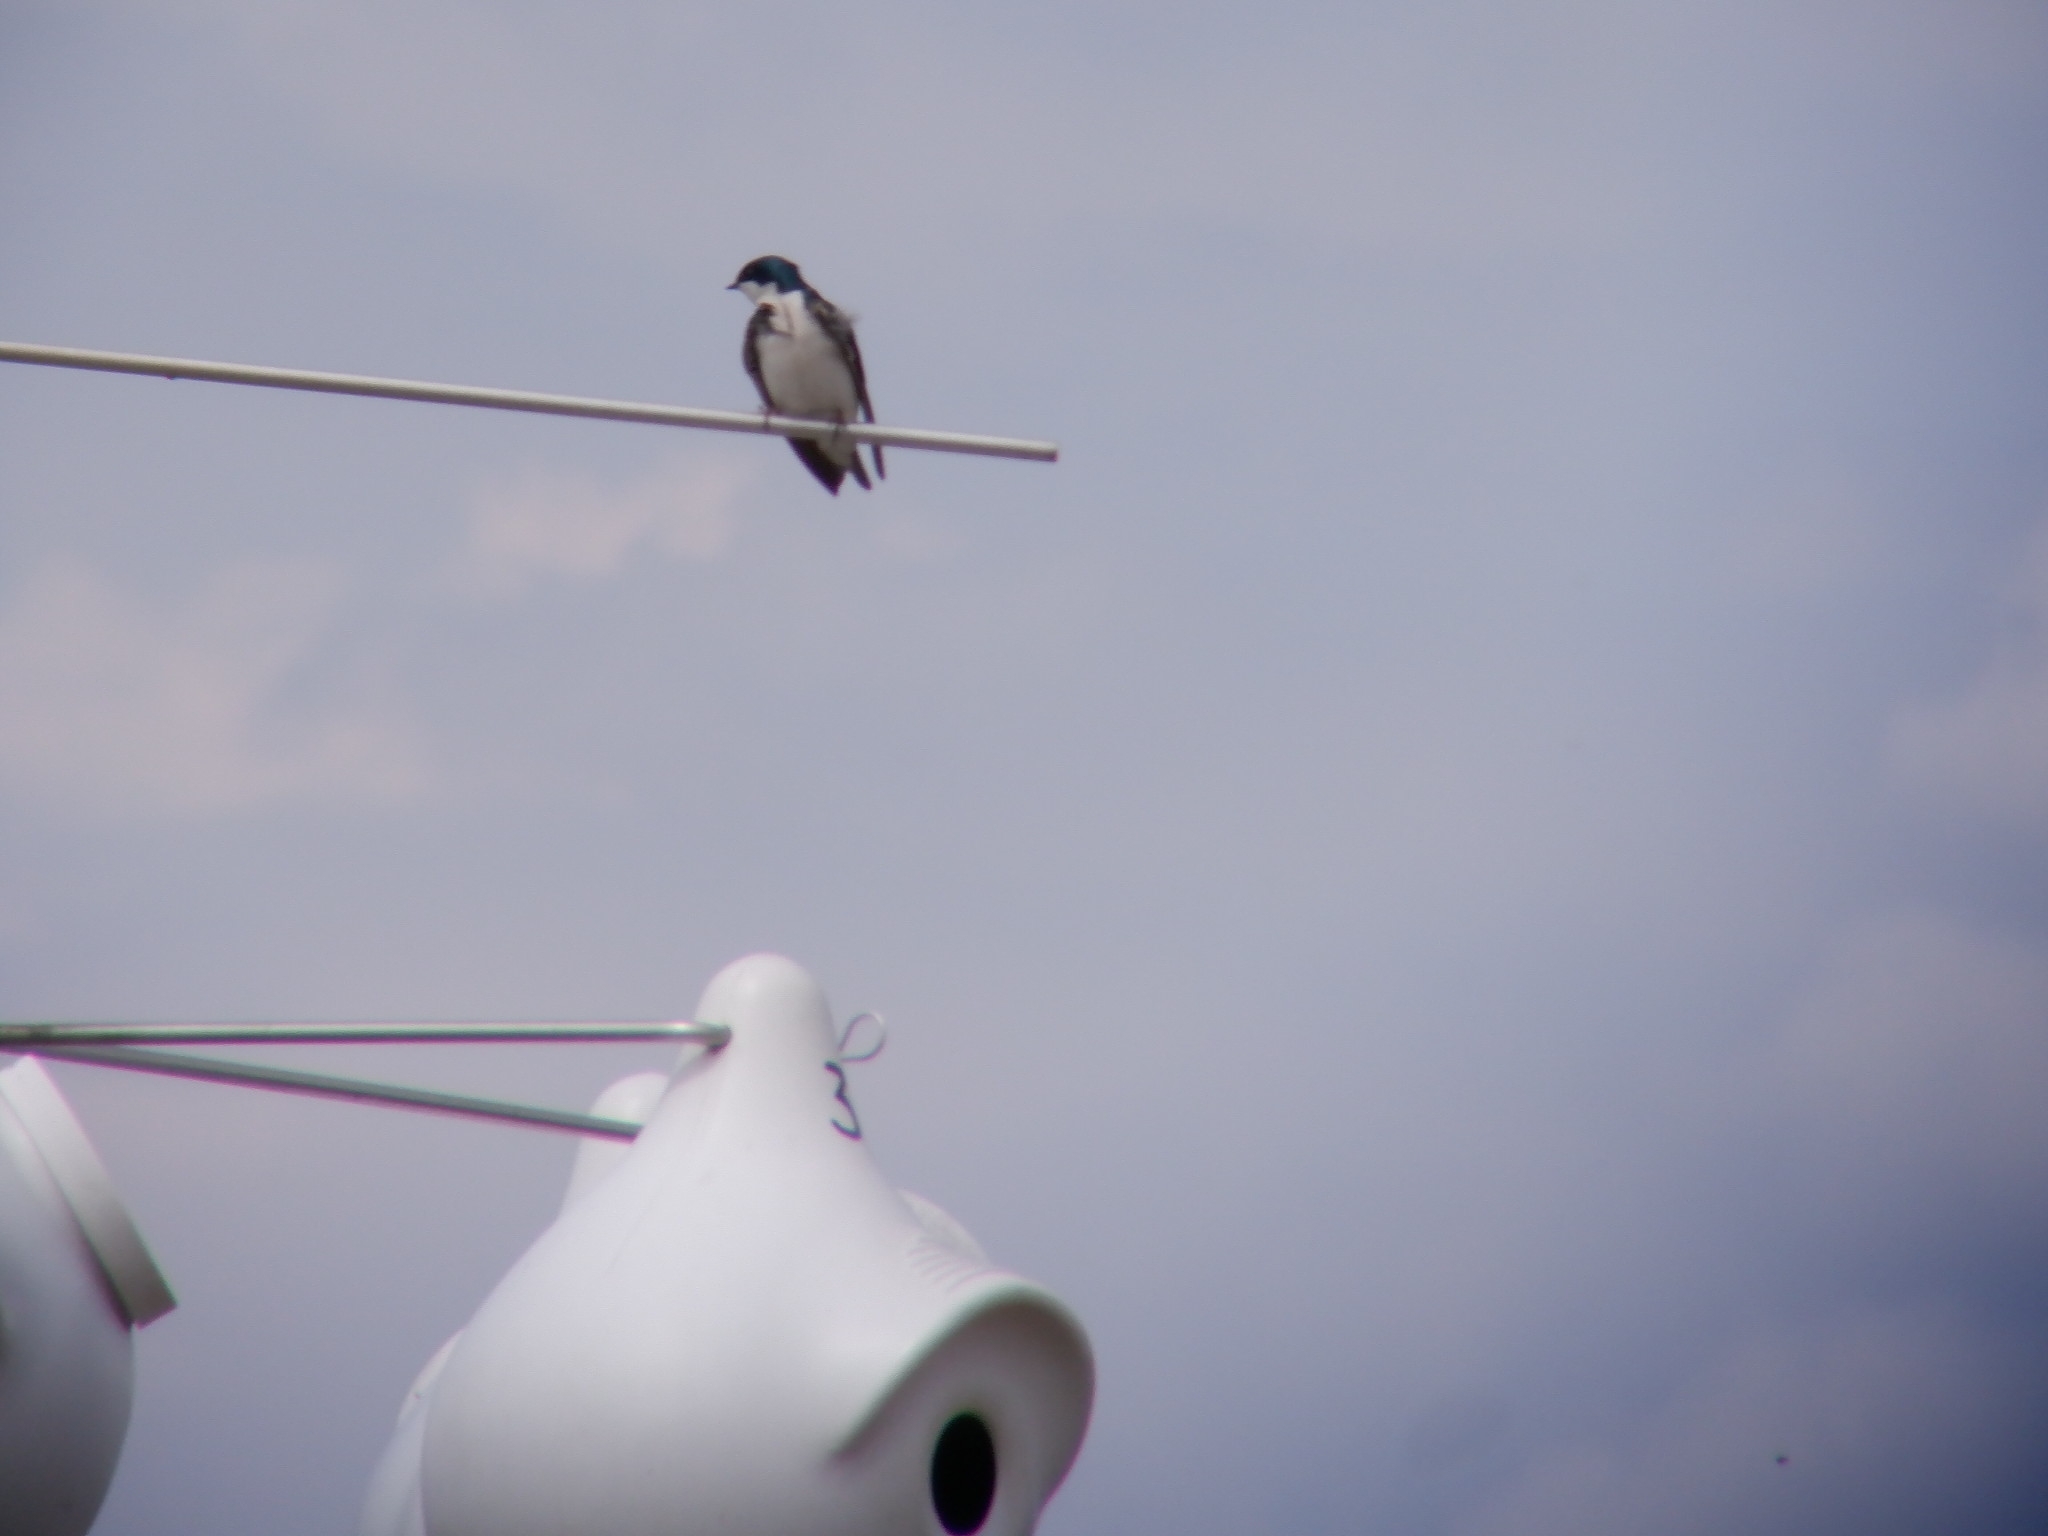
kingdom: Animalia
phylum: Chordata
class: Aves
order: Passeriformes
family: Hirundinidae
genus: Tachycineta
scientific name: Tachycineta bicolor
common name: Tree swallow
